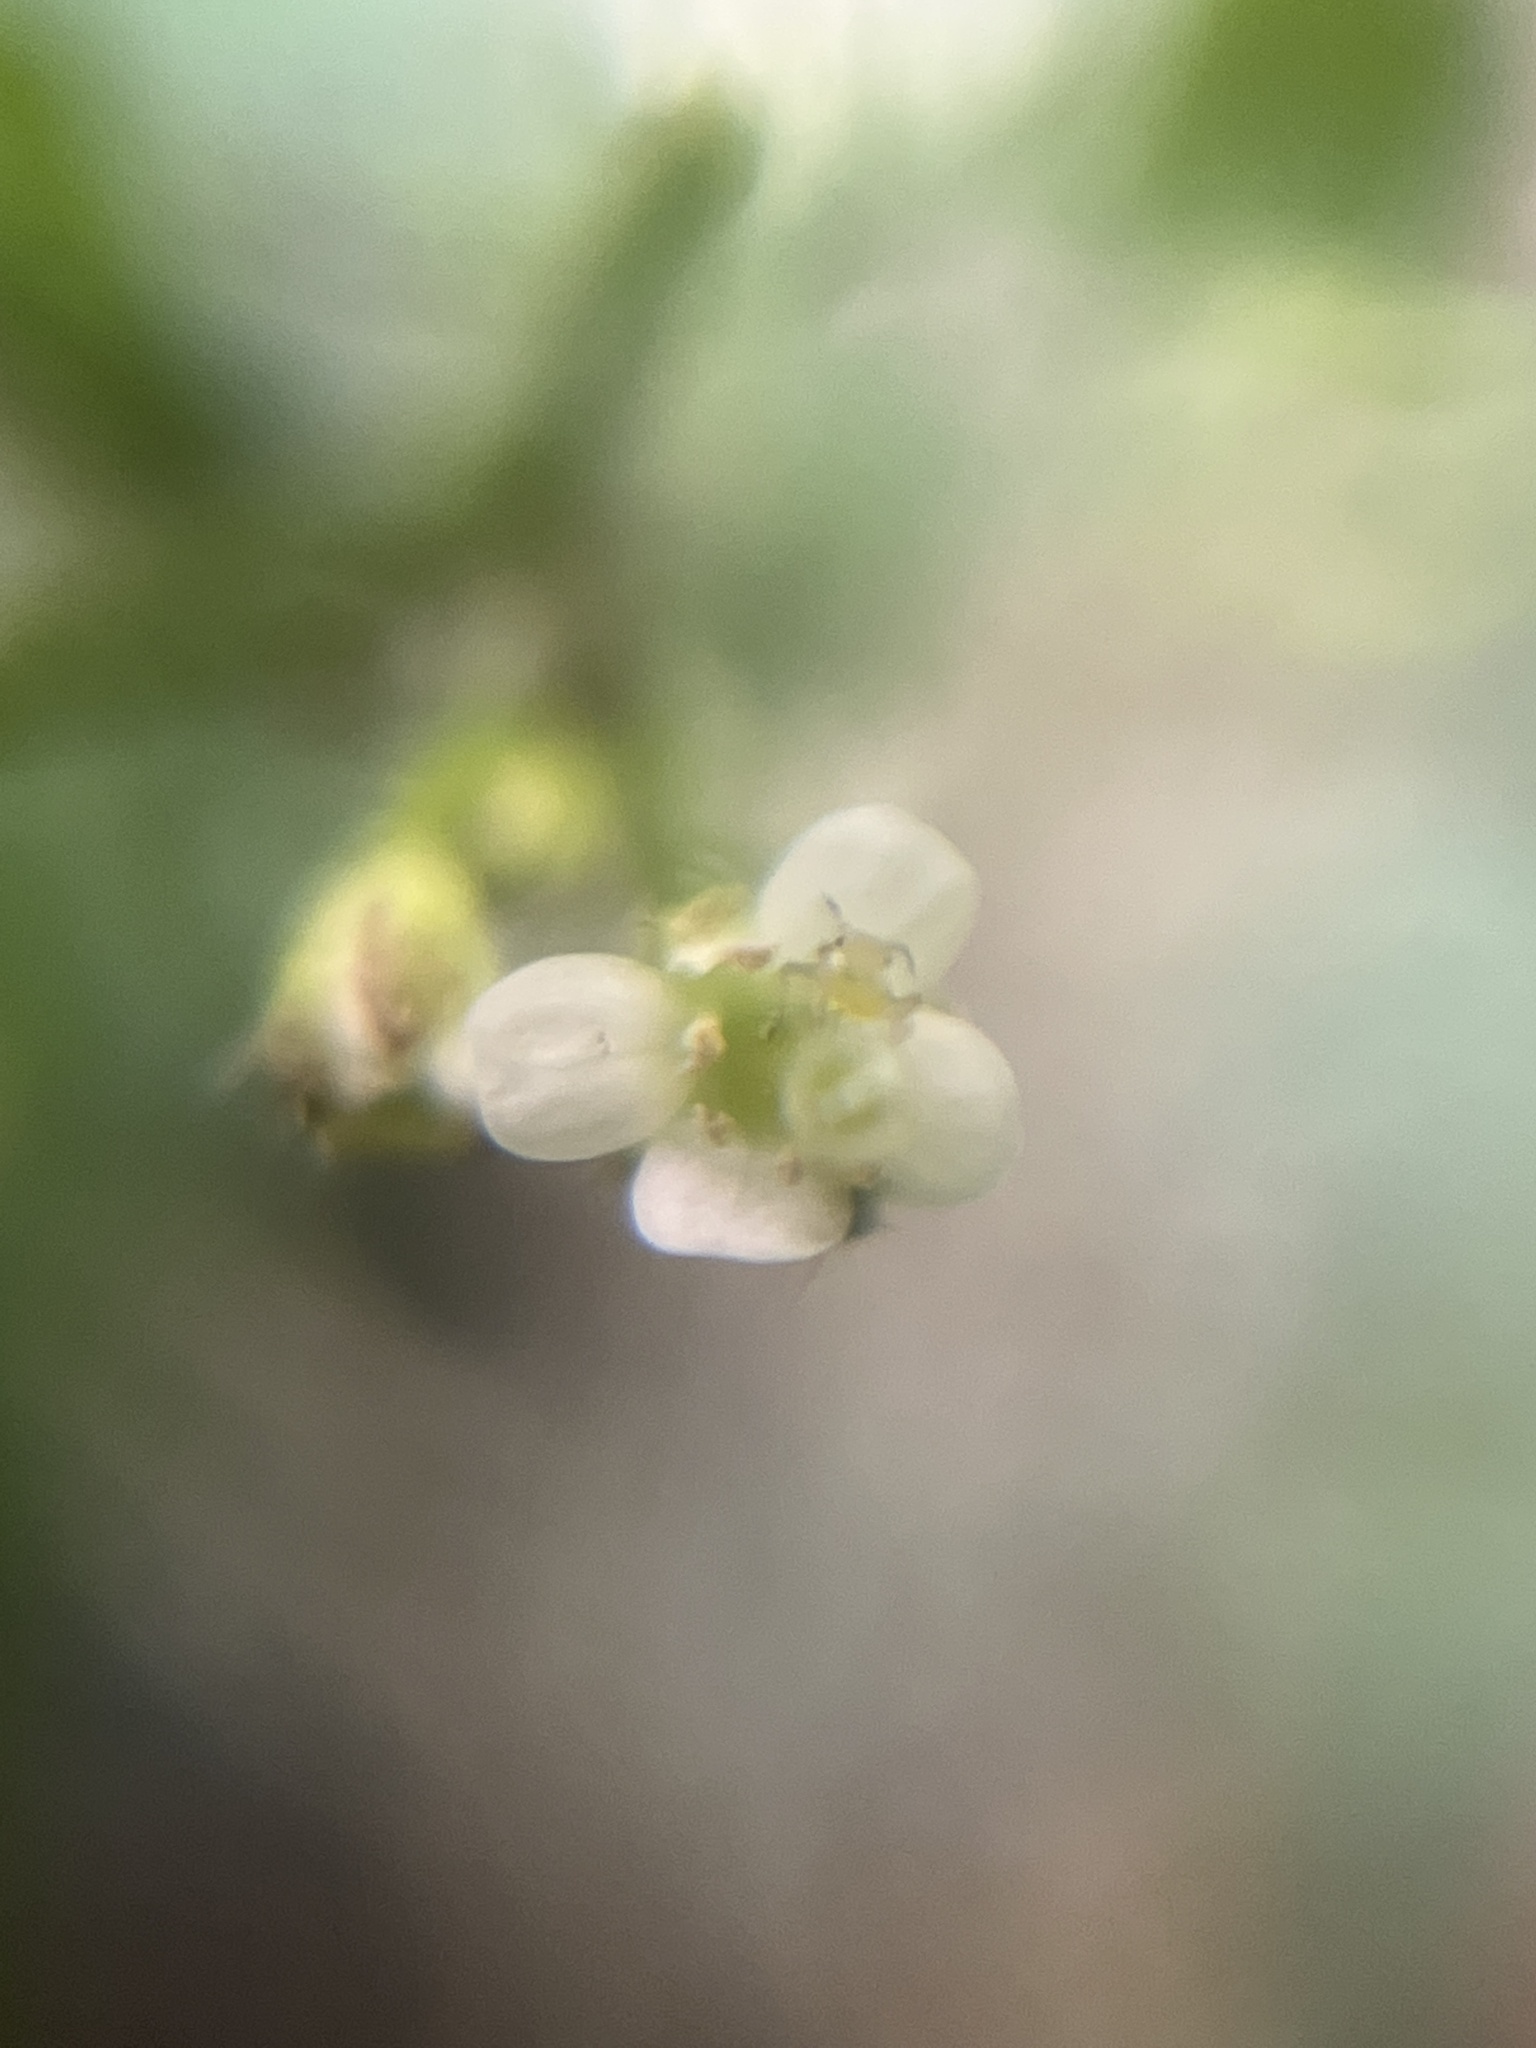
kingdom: Plantae
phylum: Tracheophyta
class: Magnoliopsida
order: Brassicales
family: Brassicaceae
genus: Cardamine
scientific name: Cardamine flexuosa
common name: Woodland bittercress
